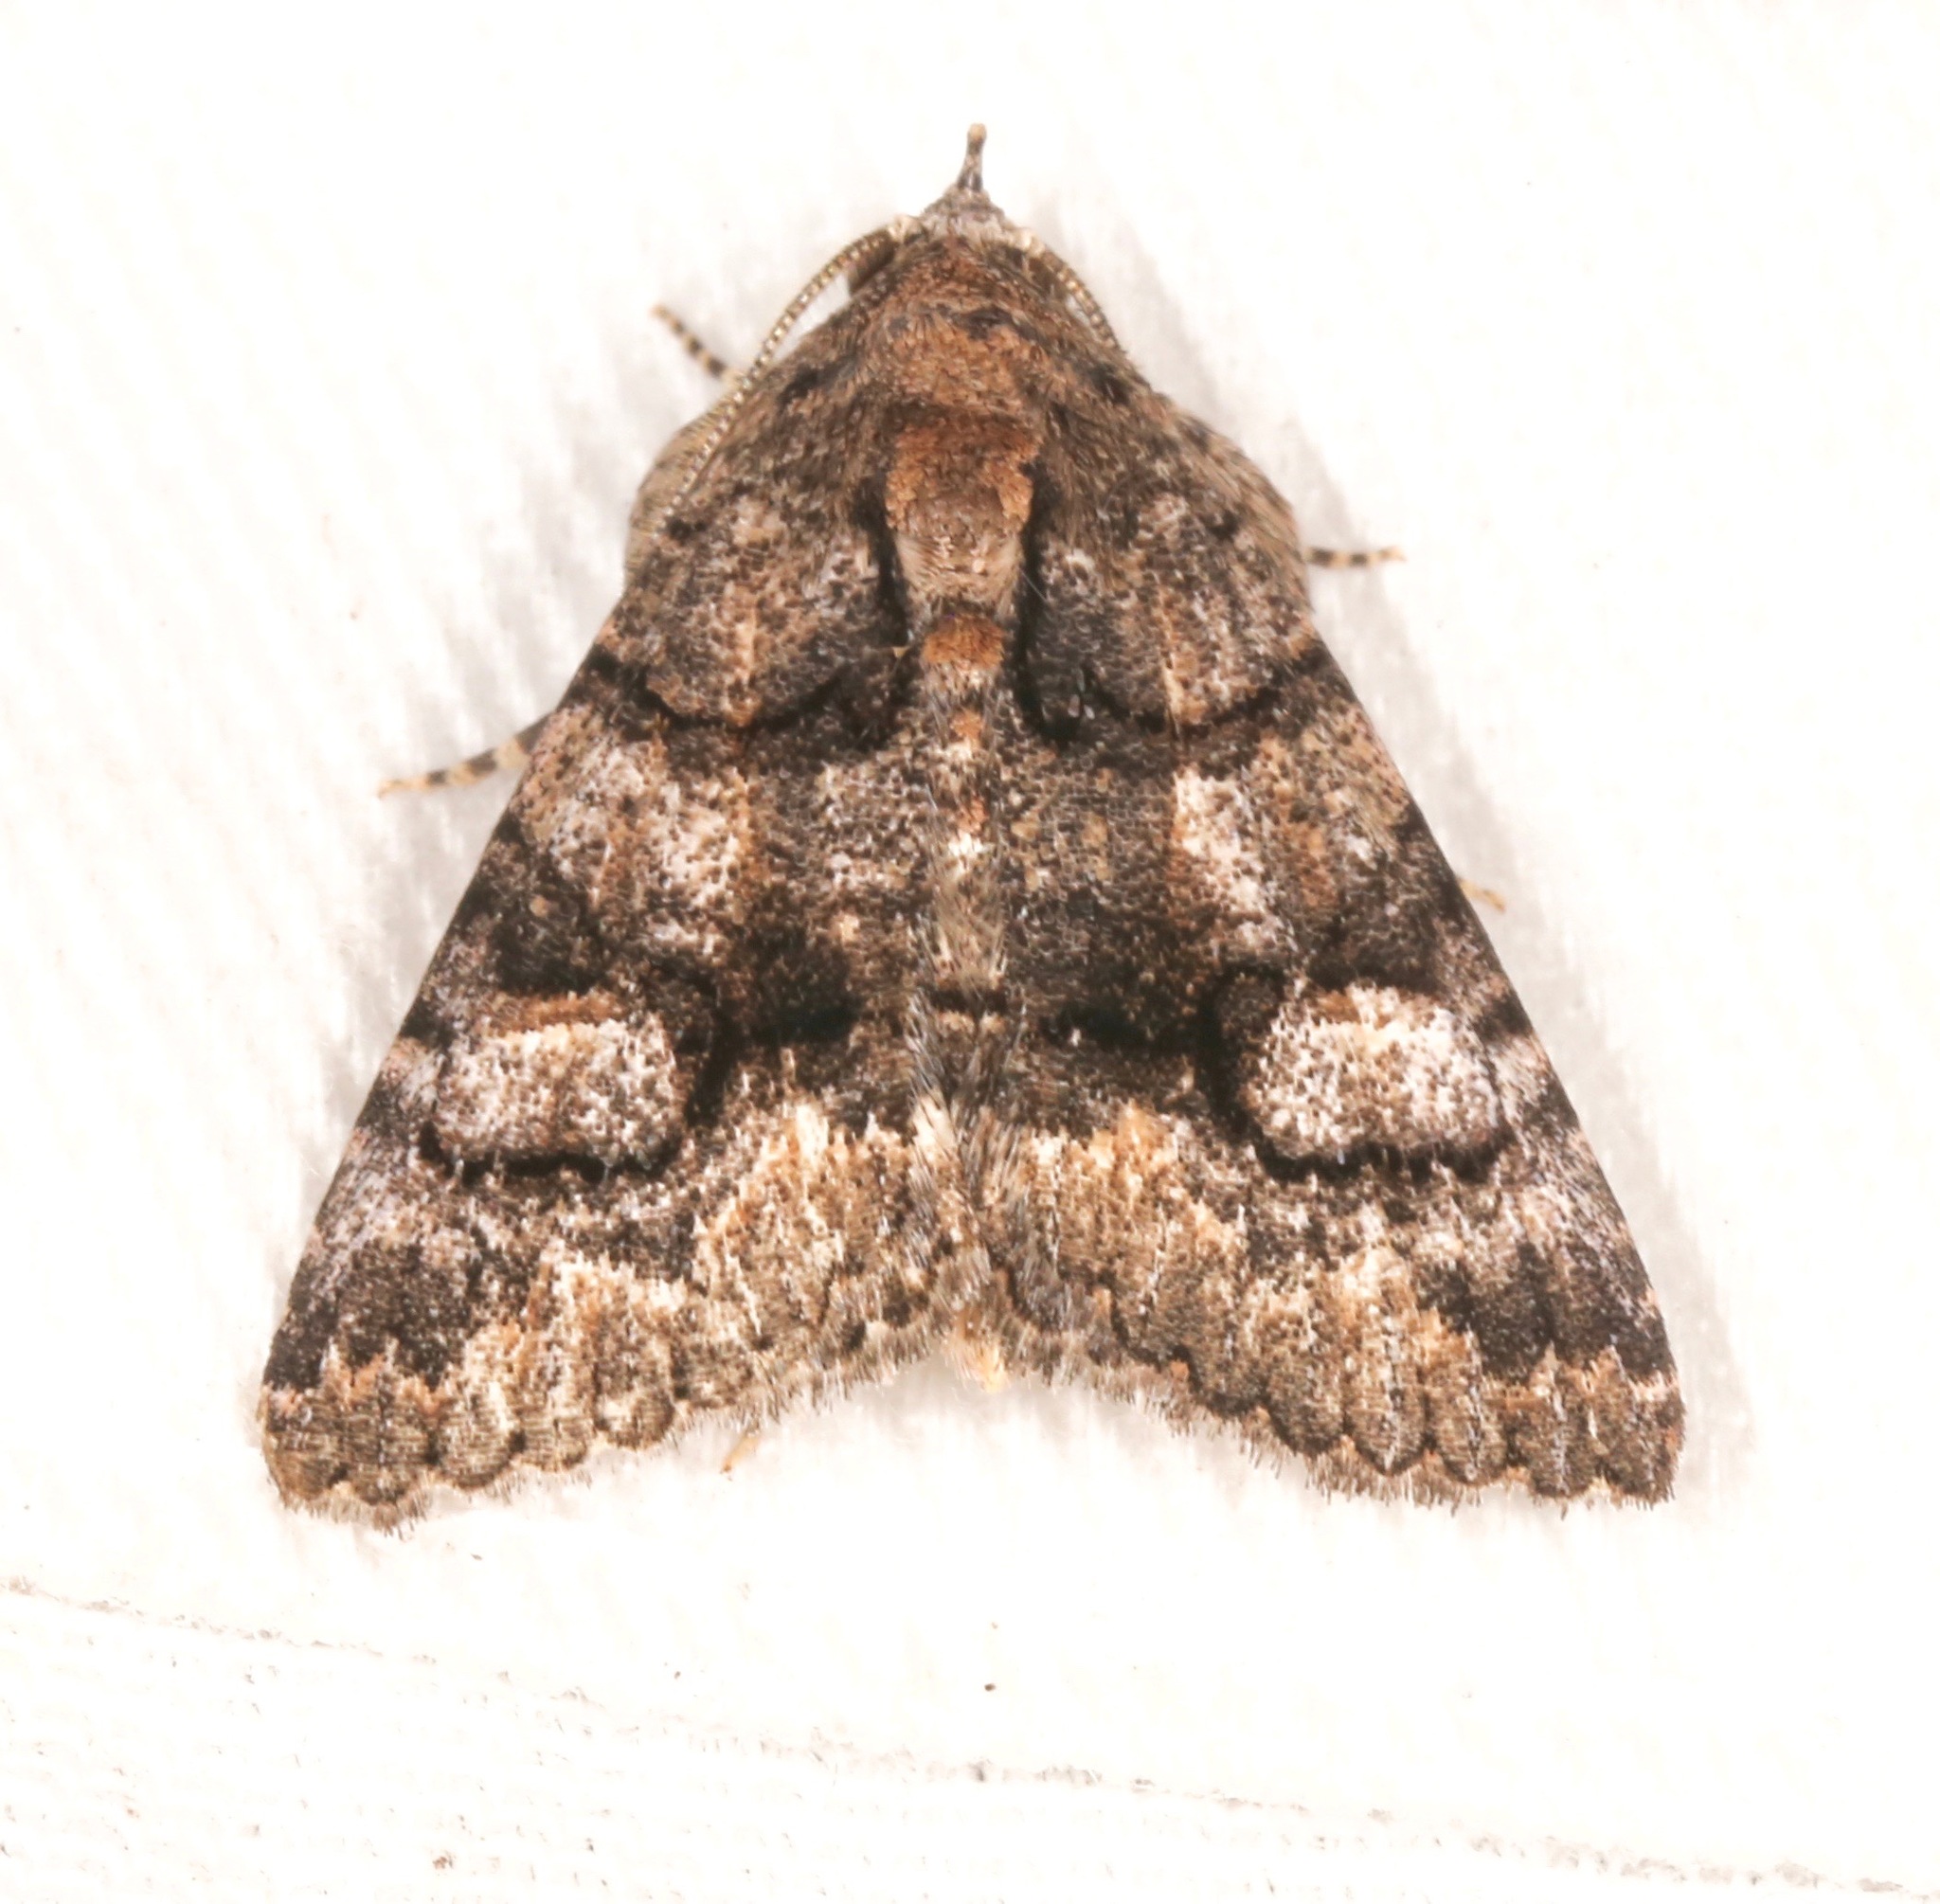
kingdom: Animalia
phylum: Arthropoda
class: Insecta
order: Lepidoptera
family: Erebidae
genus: Elousa
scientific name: Elousa mima
